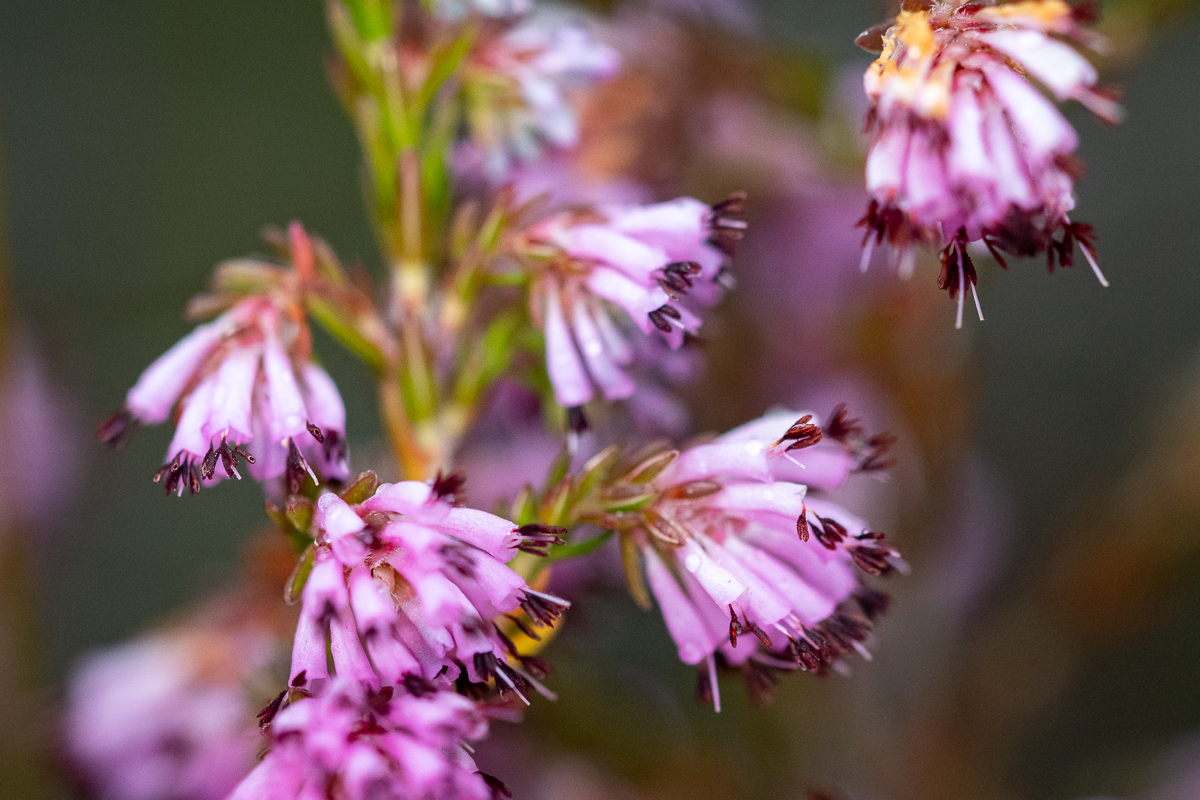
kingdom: Plantae
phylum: Tracheophyta
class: Magnoliopsida
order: Ericales
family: Ericaceae
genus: Erica
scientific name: Erica labialis
